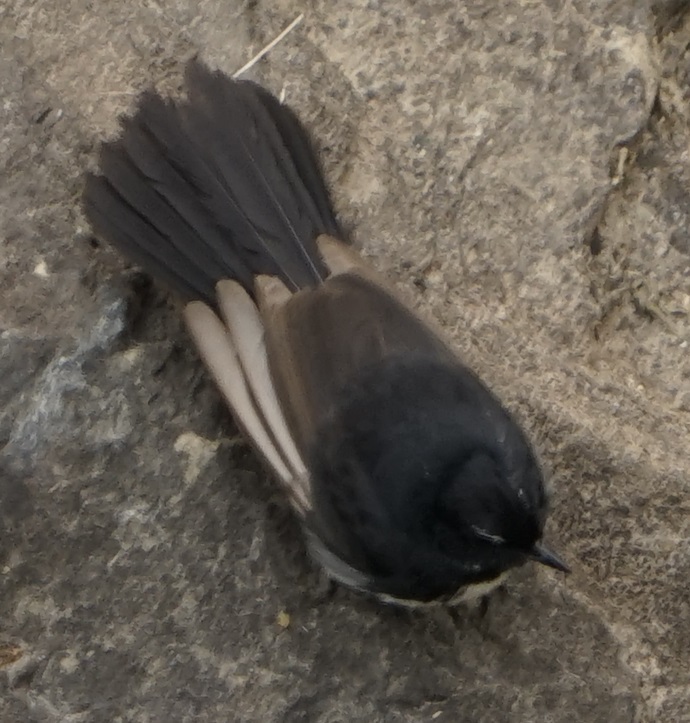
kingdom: Animalia
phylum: Chordata
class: Aves
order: Passeriformes
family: Rhipiduridae
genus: Rhipidura
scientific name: Rhipidura leucophrys
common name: Willie wagtail
